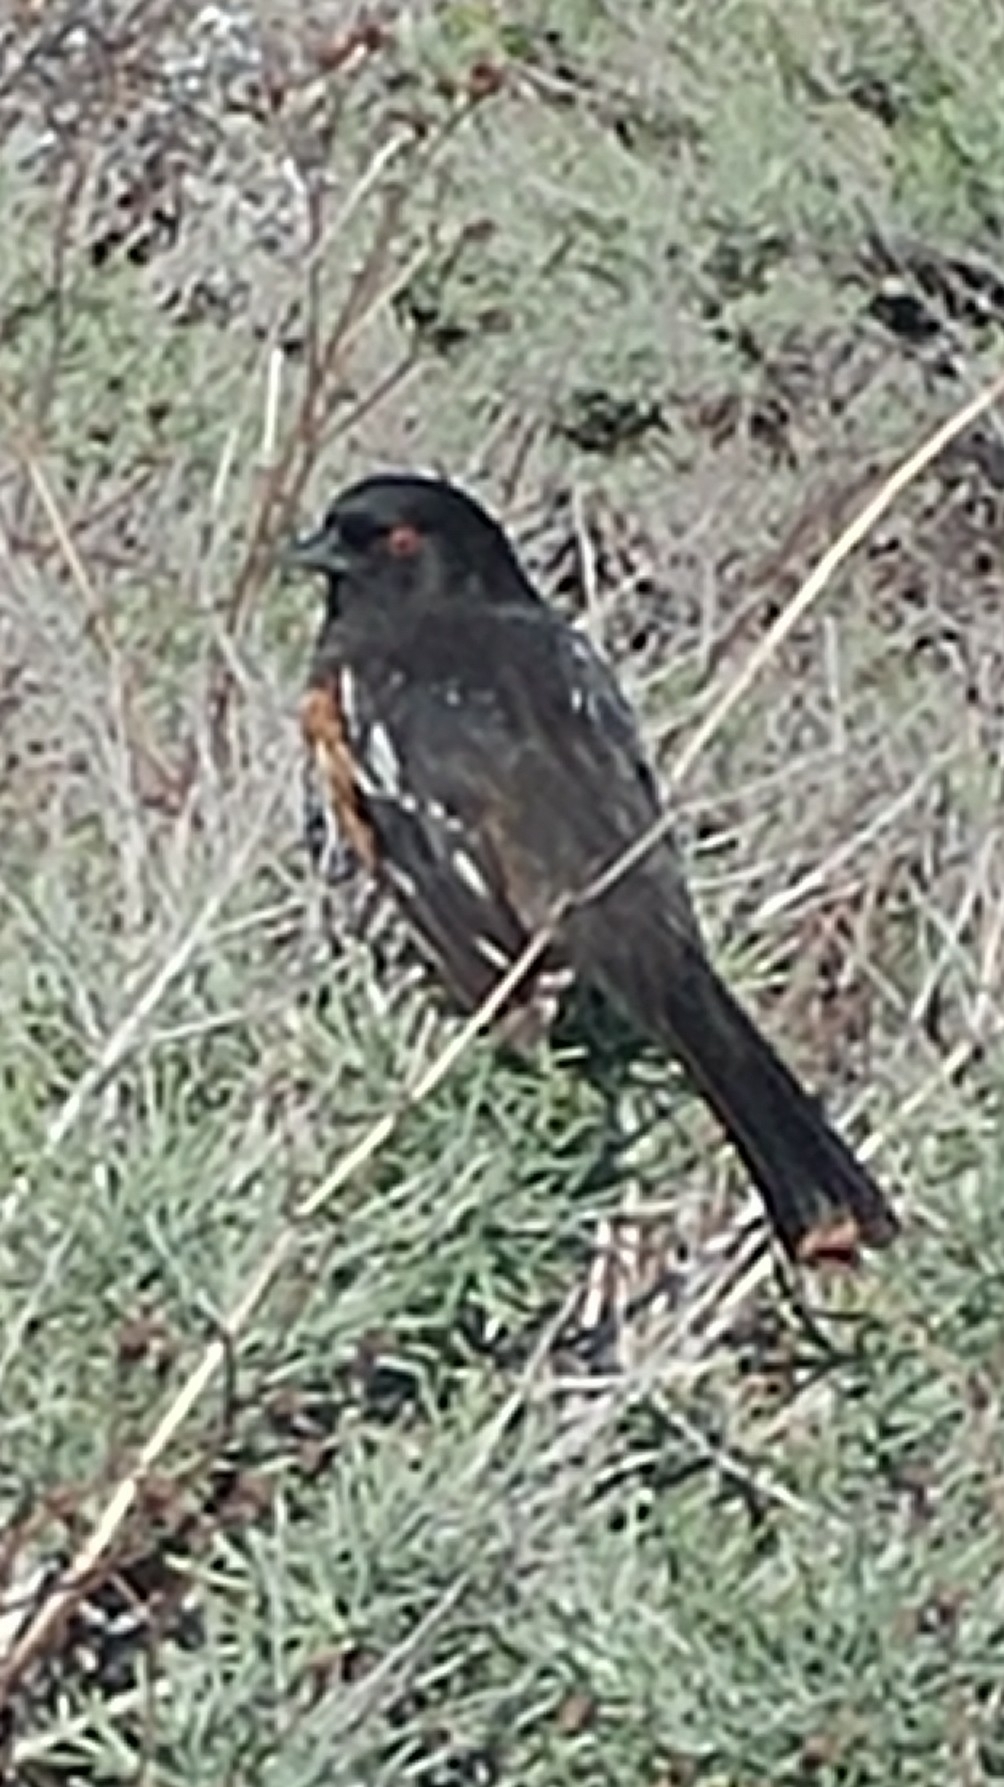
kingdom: Animalia
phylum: Chordata
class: Aves
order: Passeriformes
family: Passerellidae
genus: Pipilo
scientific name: Pipilo maculatus
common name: Spotted towhee
